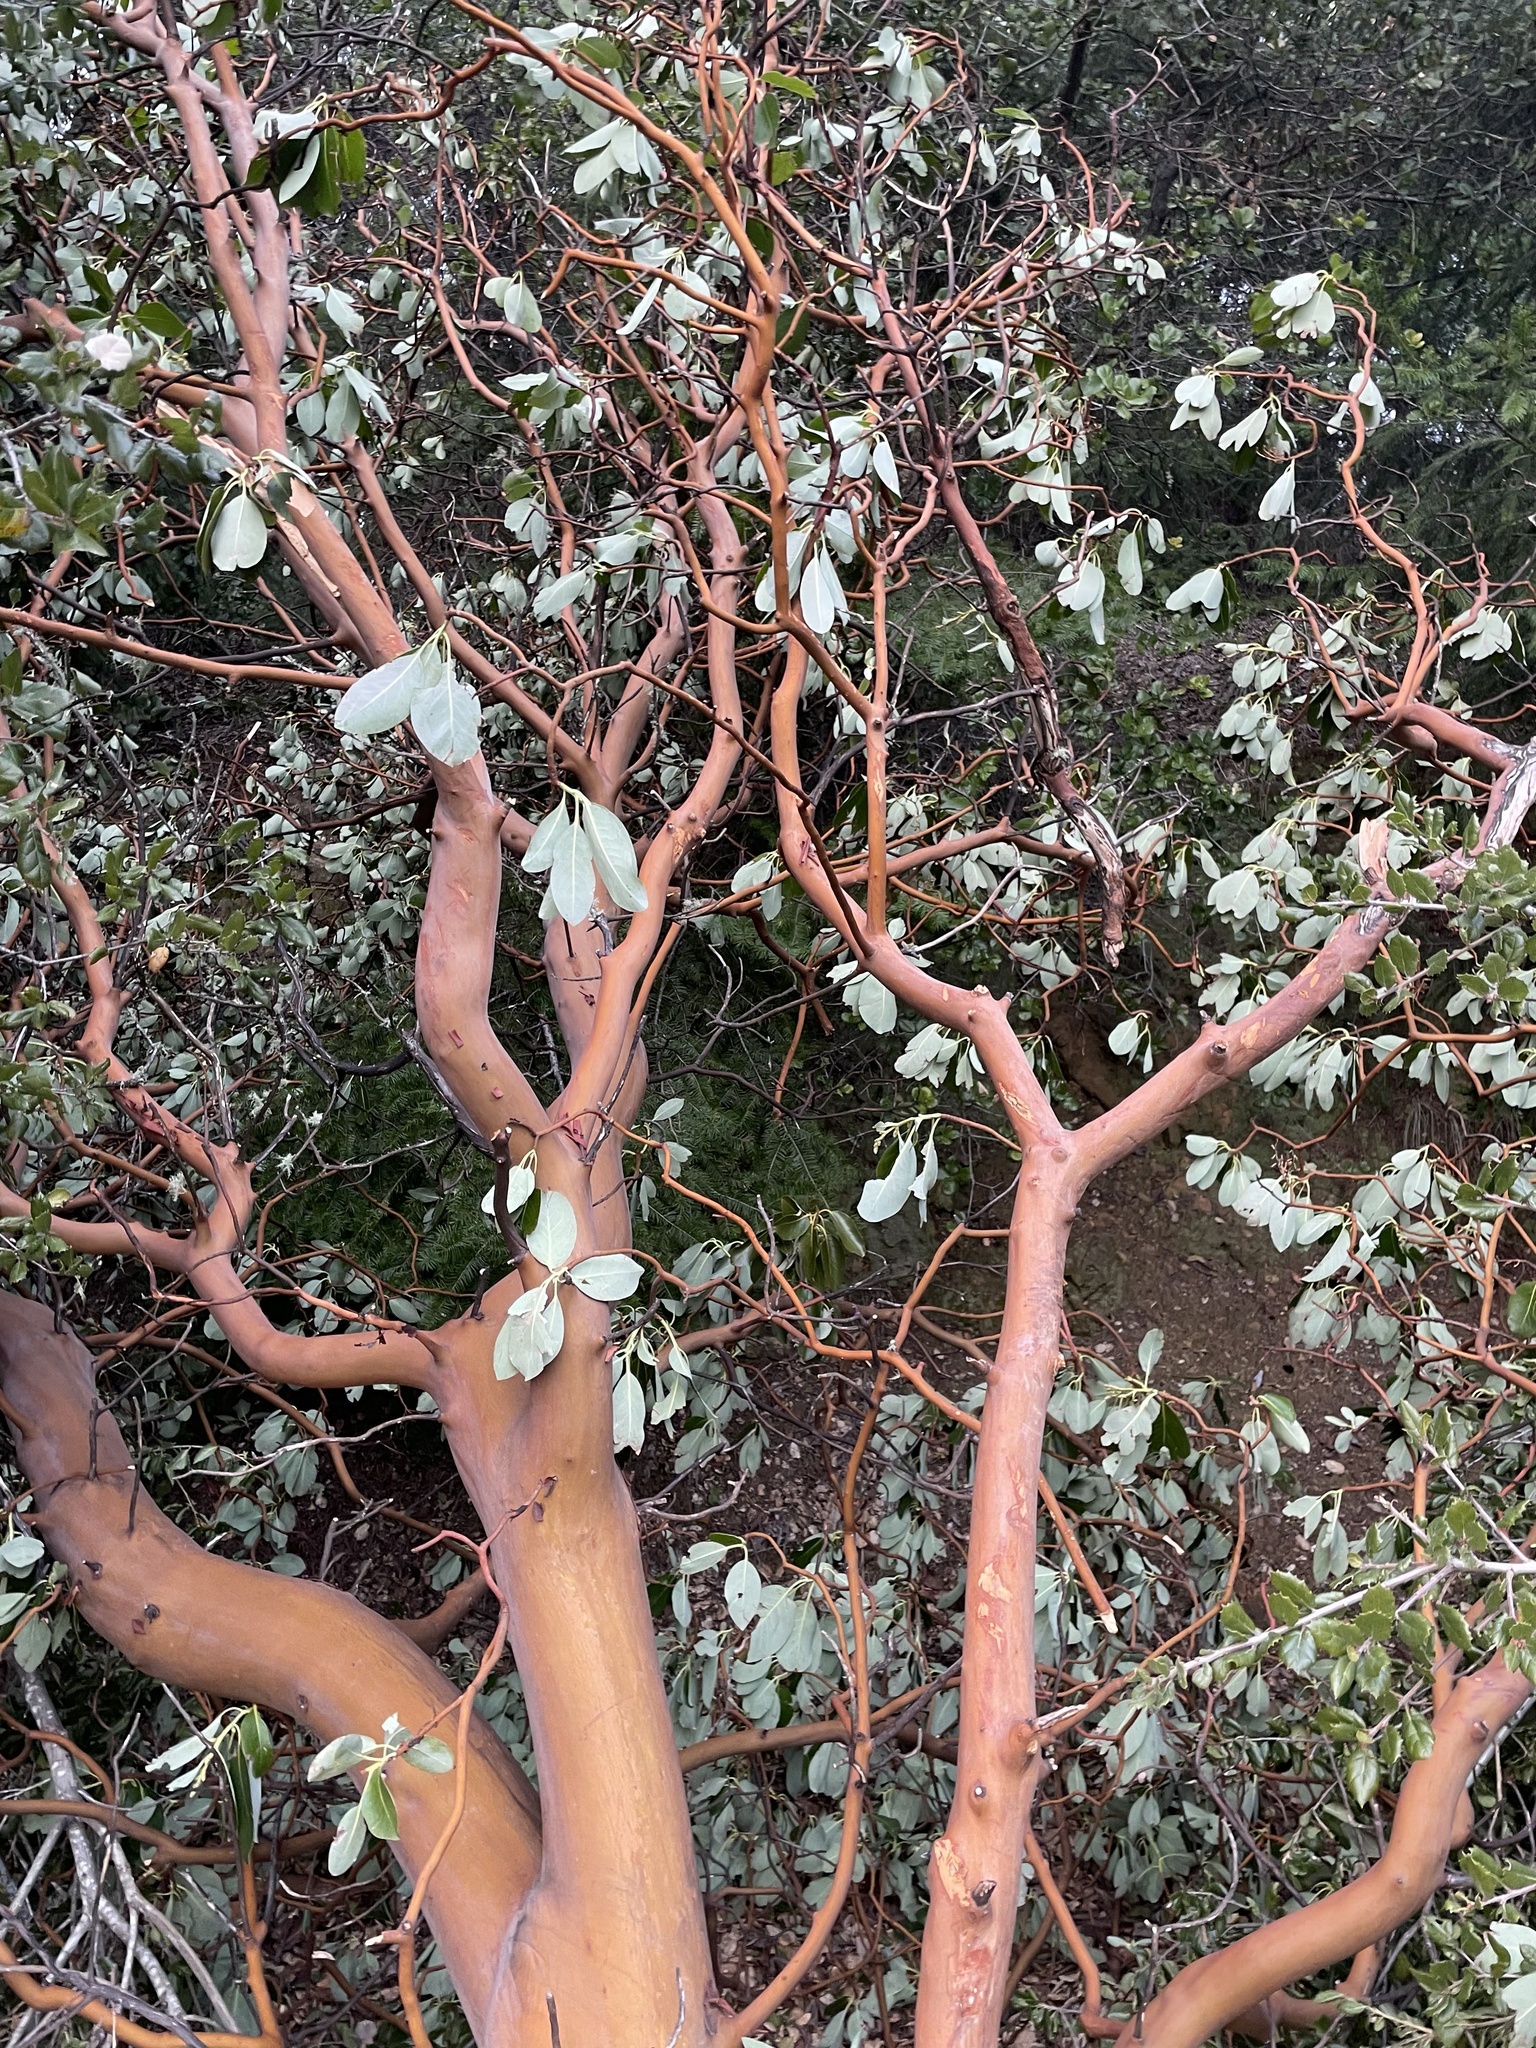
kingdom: Plantae
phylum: Tracheophyta
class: Magnoliopsida
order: Ericales
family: Ericaceae
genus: Arbutus
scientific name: Arbutus menziesii
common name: Pacific madrone
